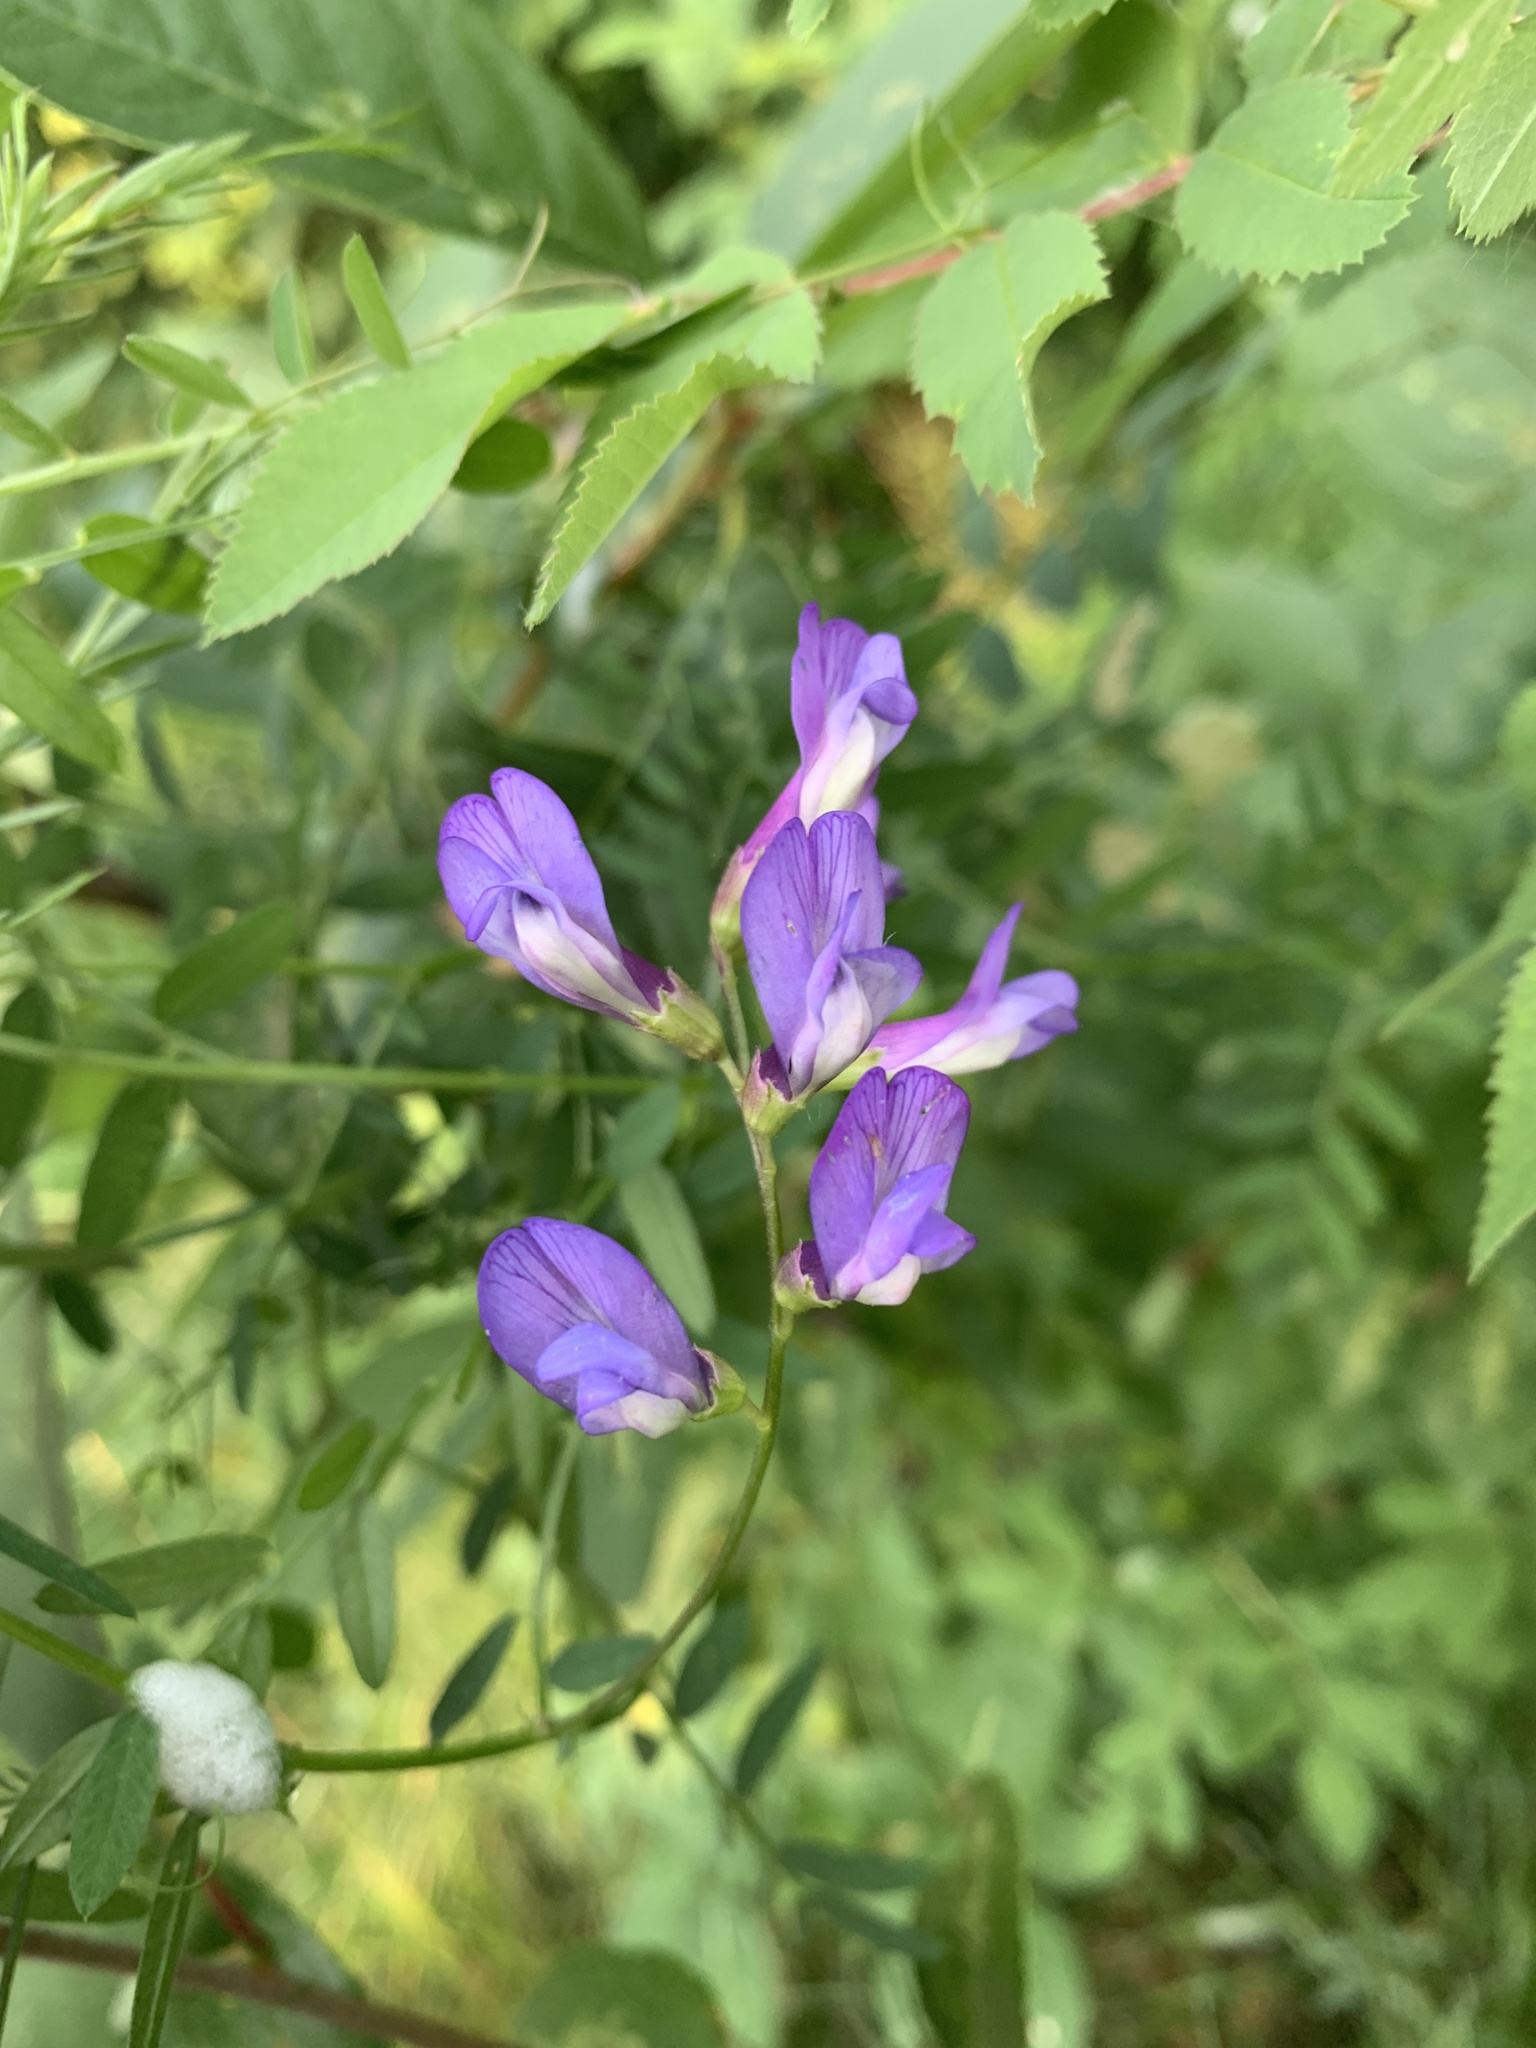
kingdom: Plantae
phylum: Tracheophyta
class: Magnoliopsida
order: Fabales
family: Fabaceae
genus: Vicia
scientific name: Vicia americana
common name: American vetch
